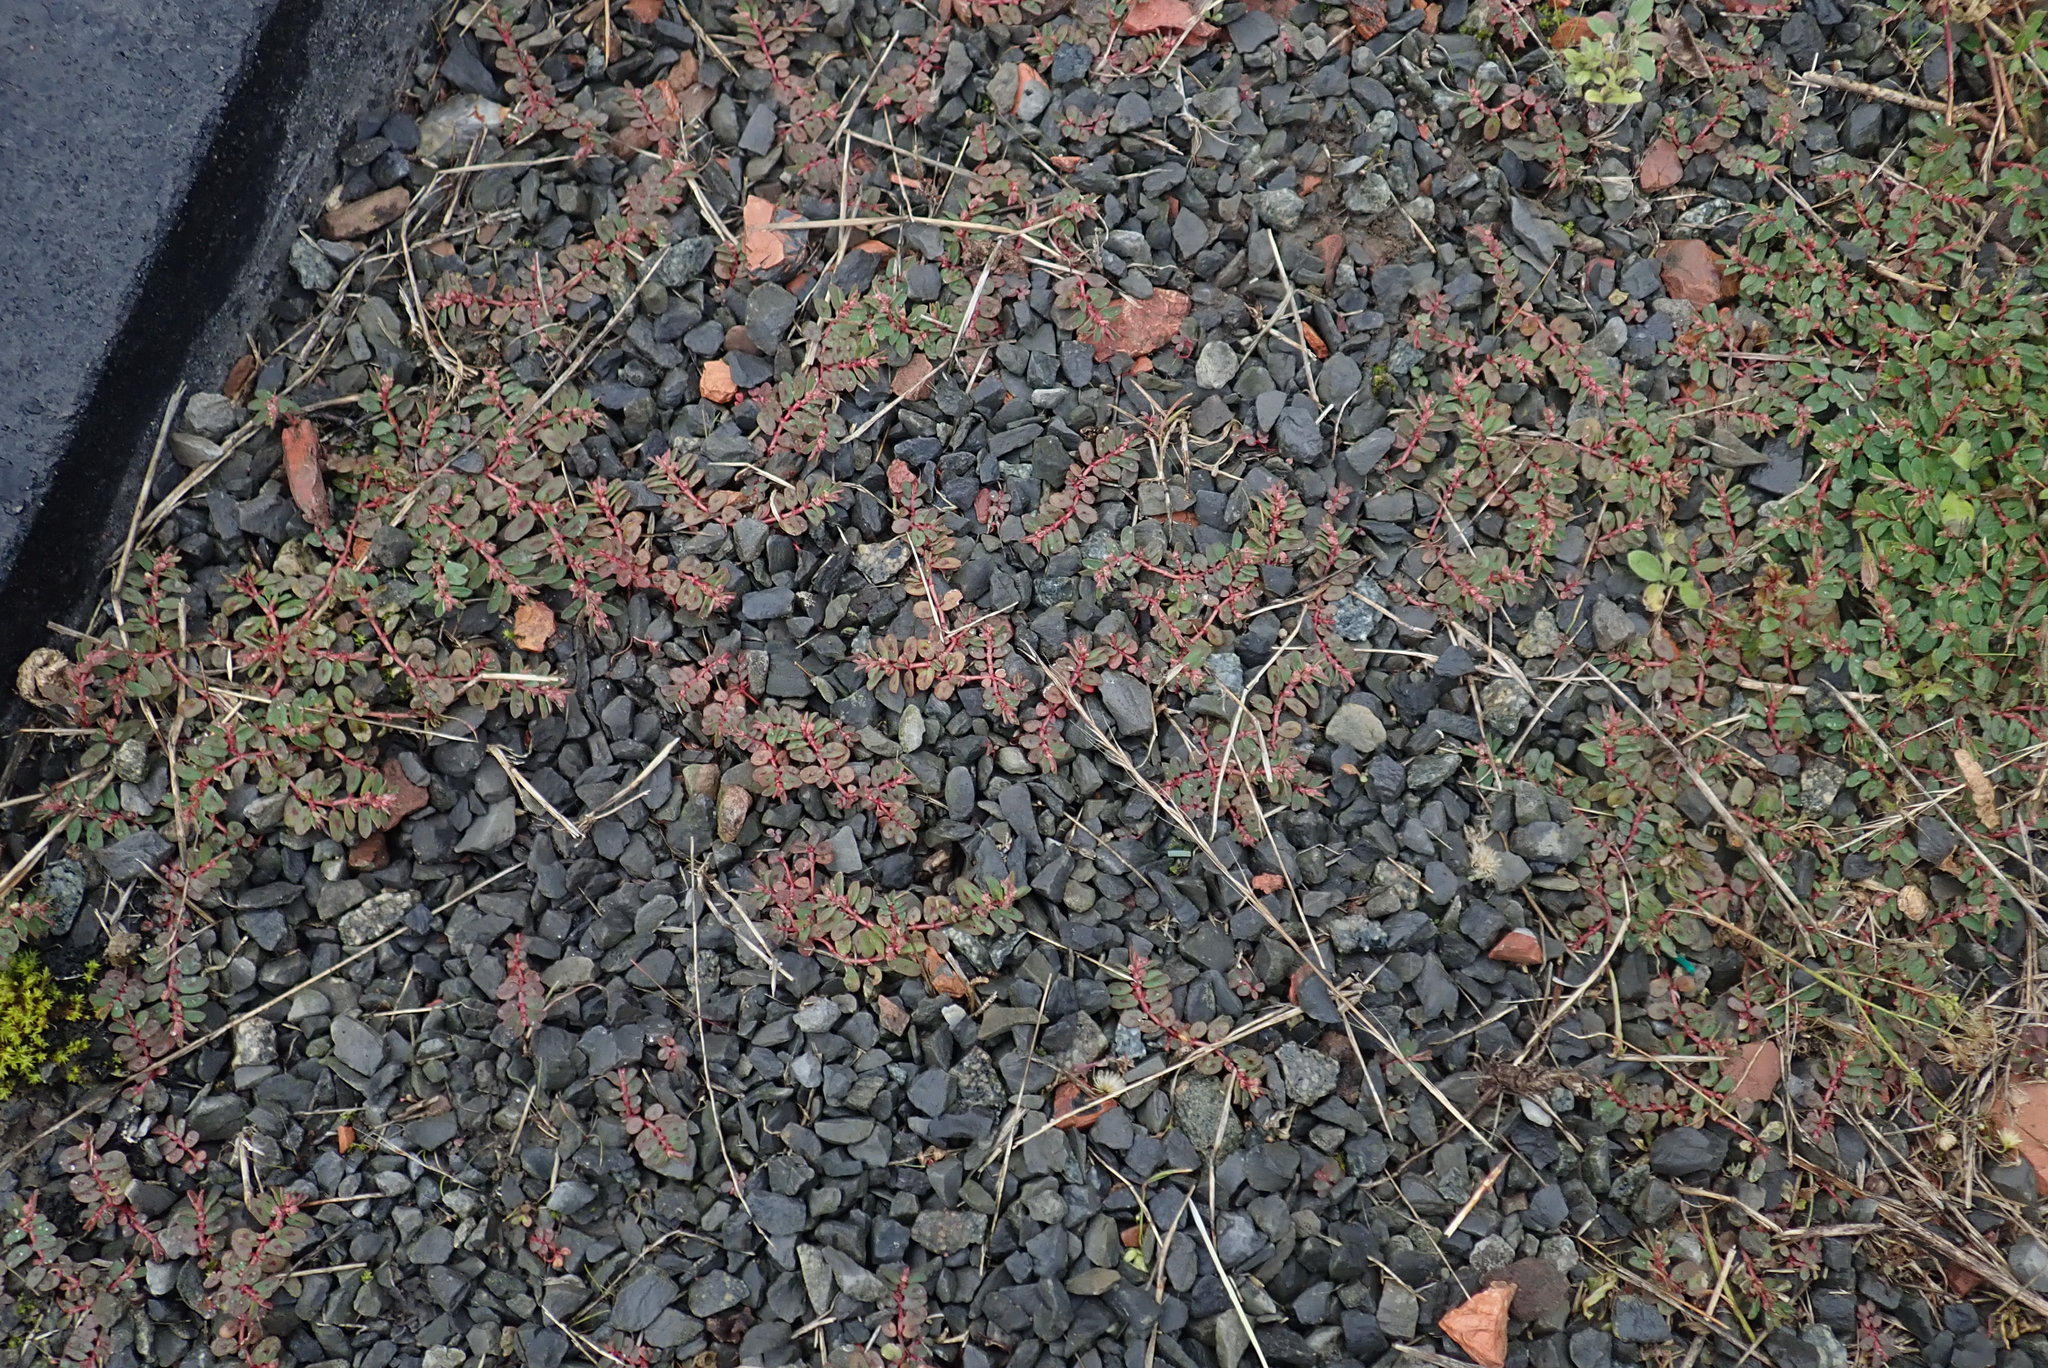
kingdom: Plantae
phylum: Tracheophyta
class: Magnoliopsida
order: Malpighiales
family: Euphorbiaceae
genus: Euphorbia
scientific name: Euphorbia maculata
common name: Spotted spurge
